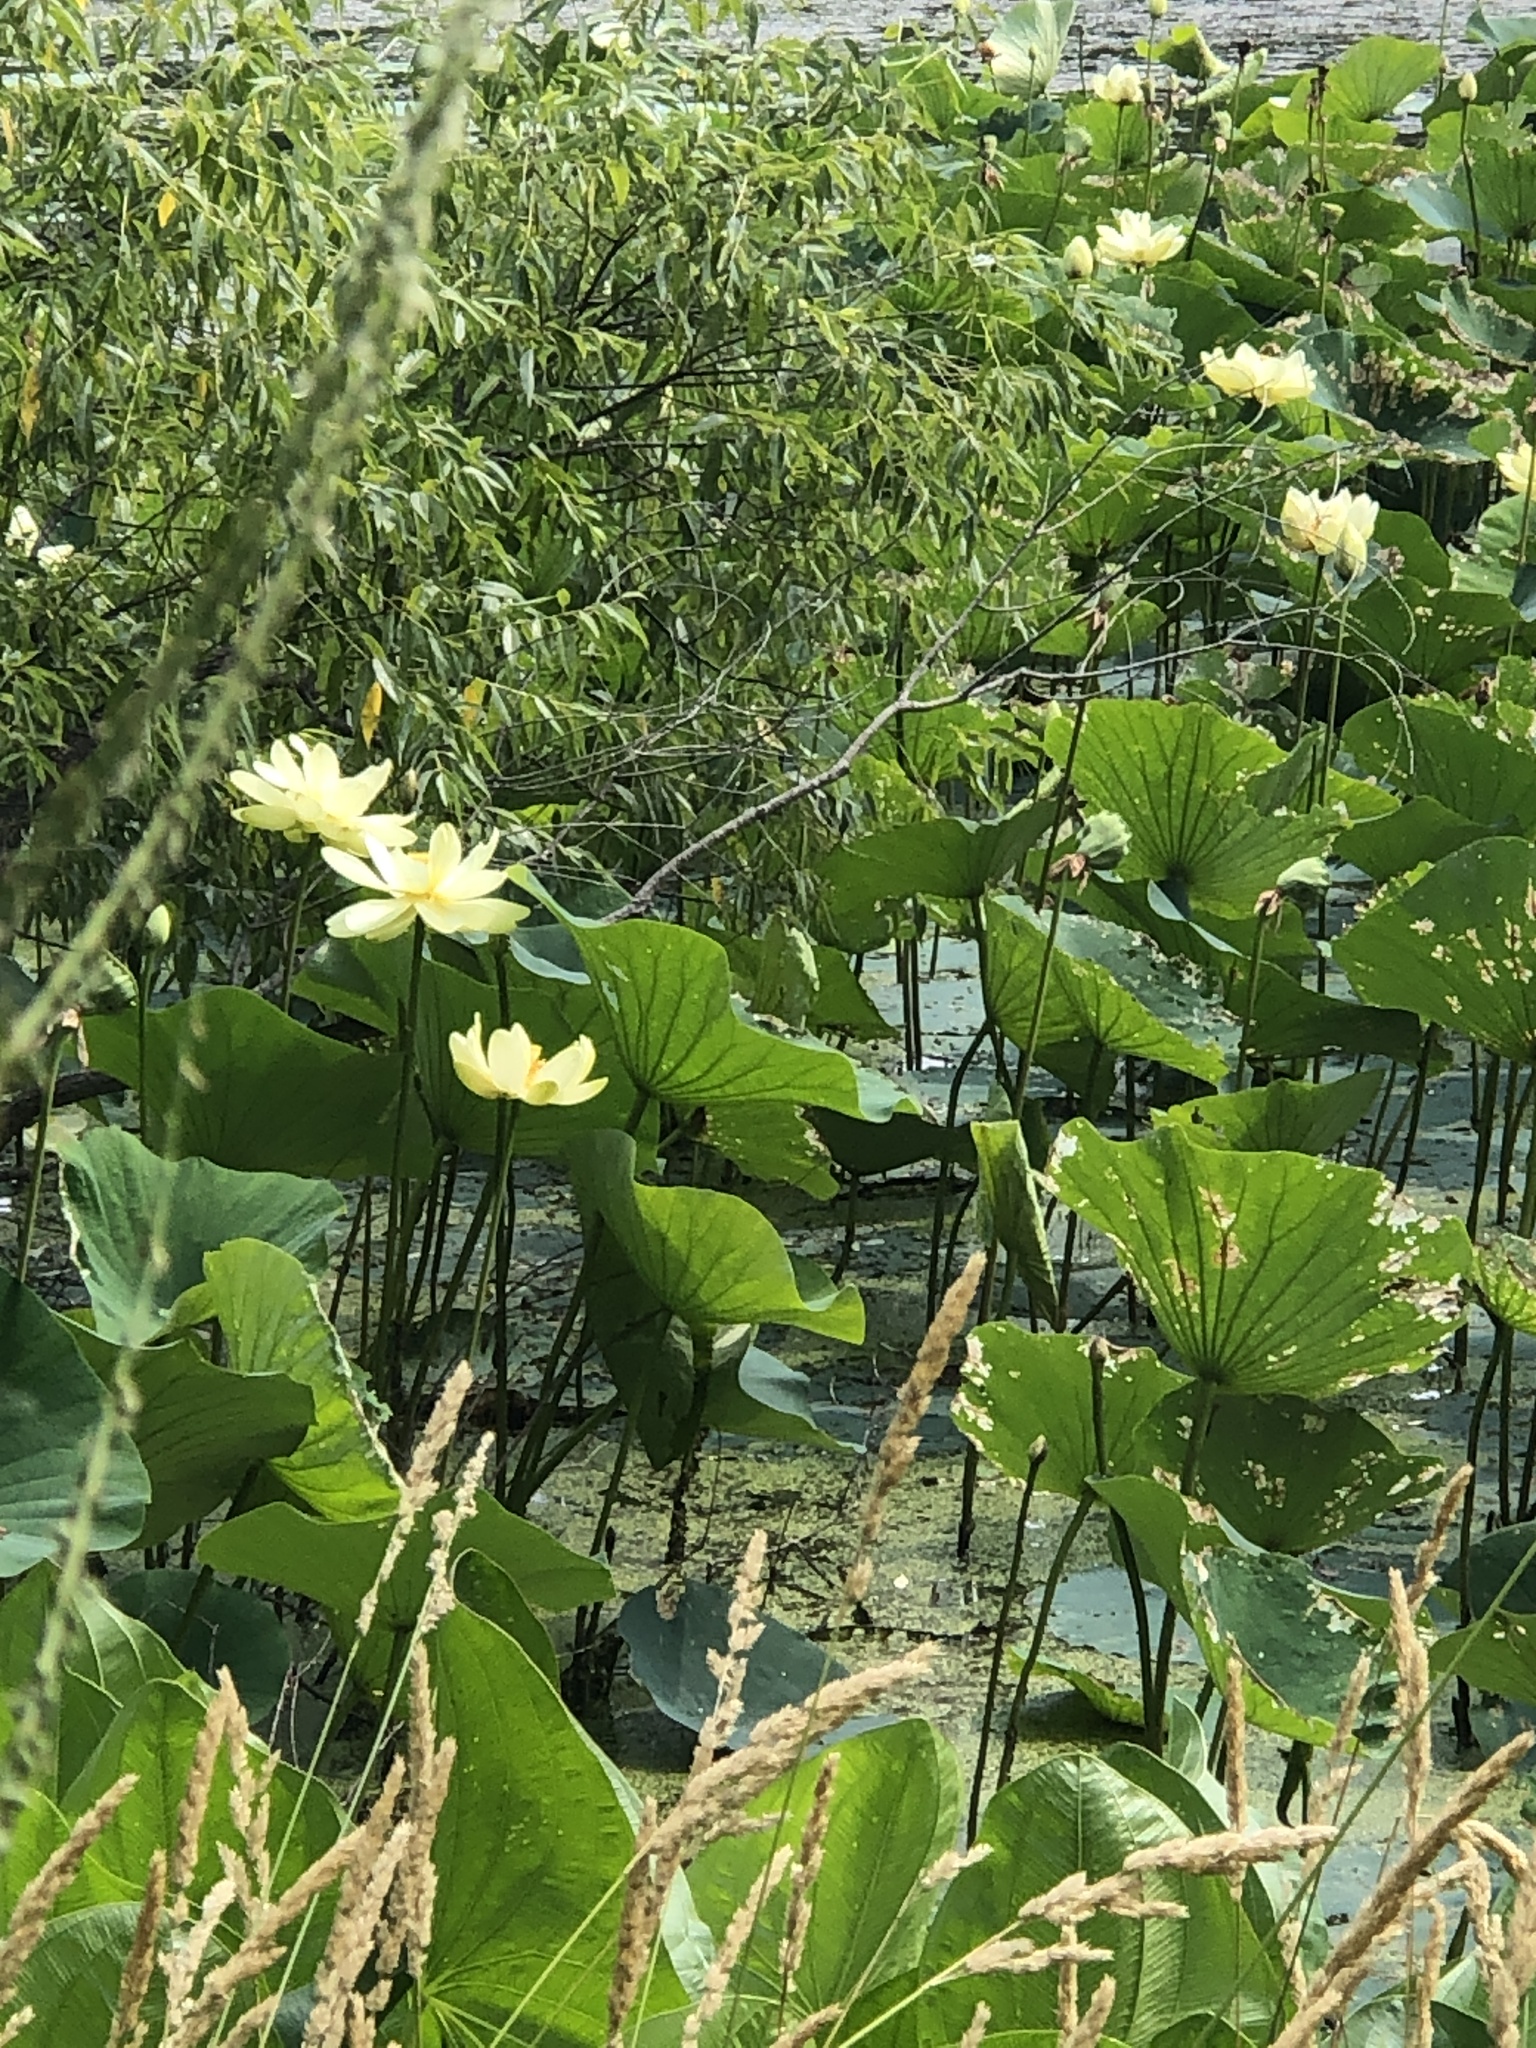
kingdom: Plantae
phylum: Tracheophyta
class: Magnoliopsida
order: Proteales
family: Nelumbonaceae
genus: Nelumbo
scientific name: Nelumbo lutea
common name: American lotus
